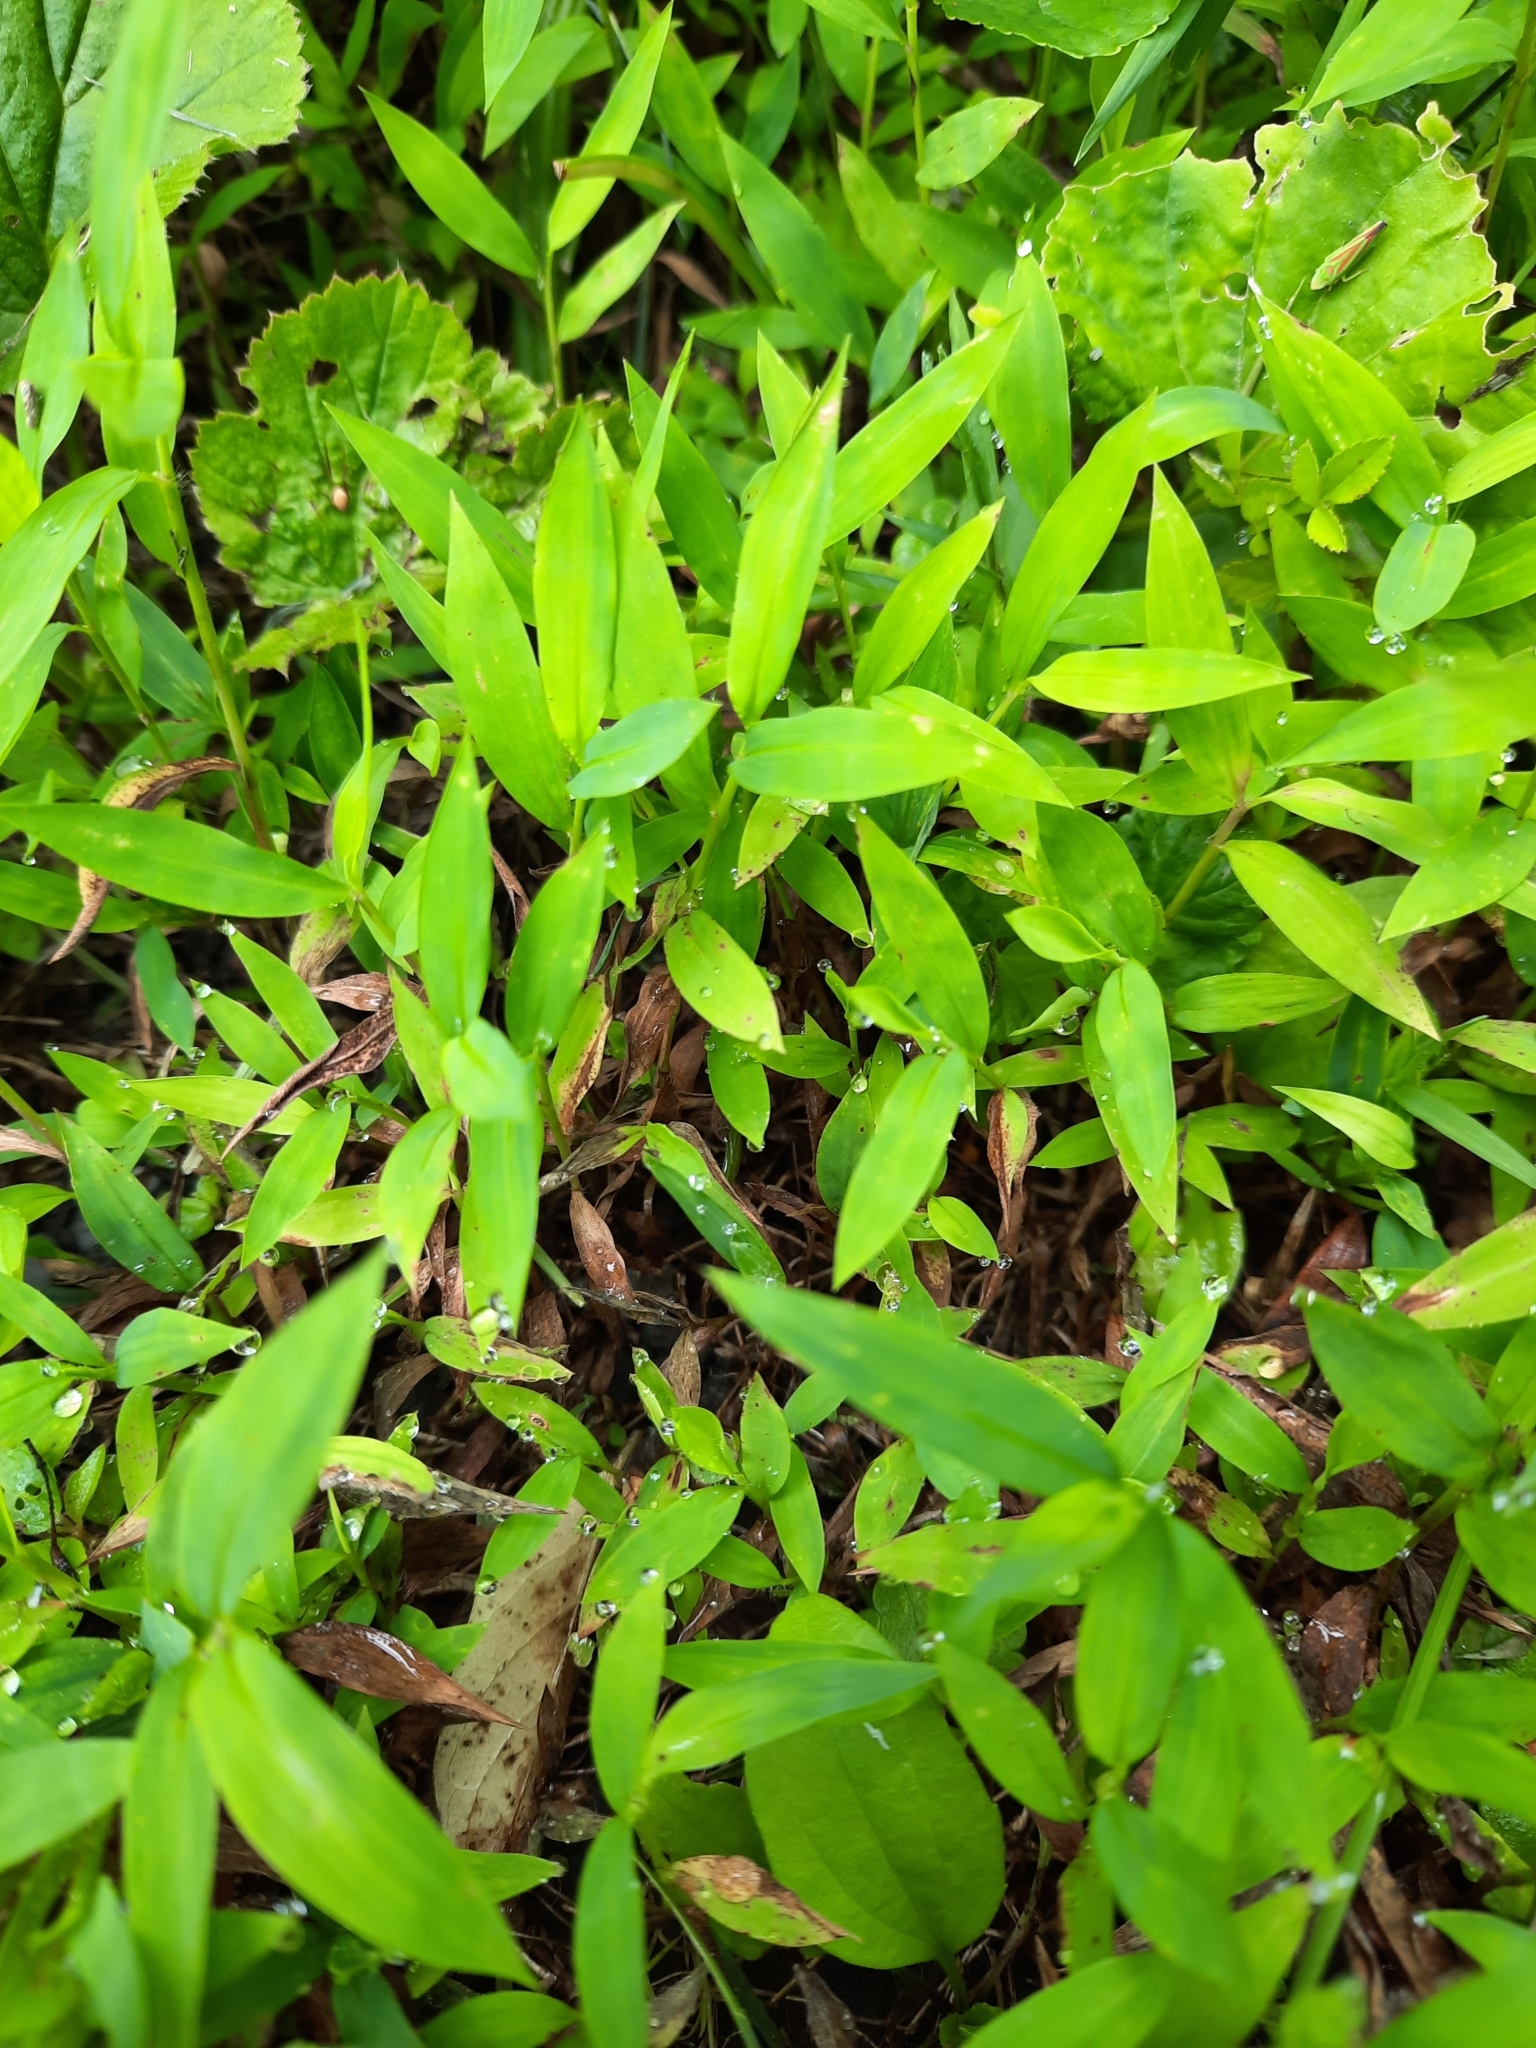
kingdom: Plantae
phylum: Tracheophyta
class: Liliopsida
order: Poales
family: Poaceae
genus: Microstegium
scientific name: Microstegium vimineum
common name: Japanese stiltgrass
